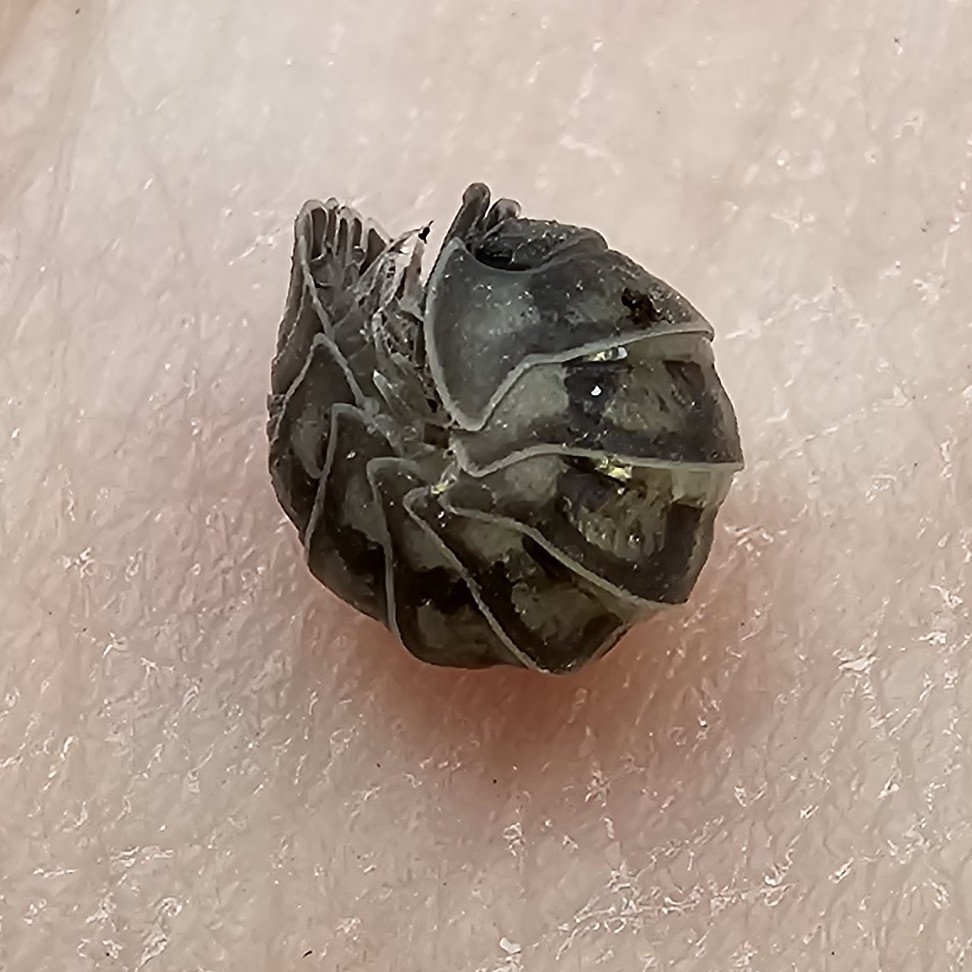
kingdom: Animalia
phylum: Arthropoda
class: Malacostraca
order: Isopoda
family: Armadillidiidae
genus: Armadillidium
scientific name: Armadillidium nasatum
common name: Isopod
